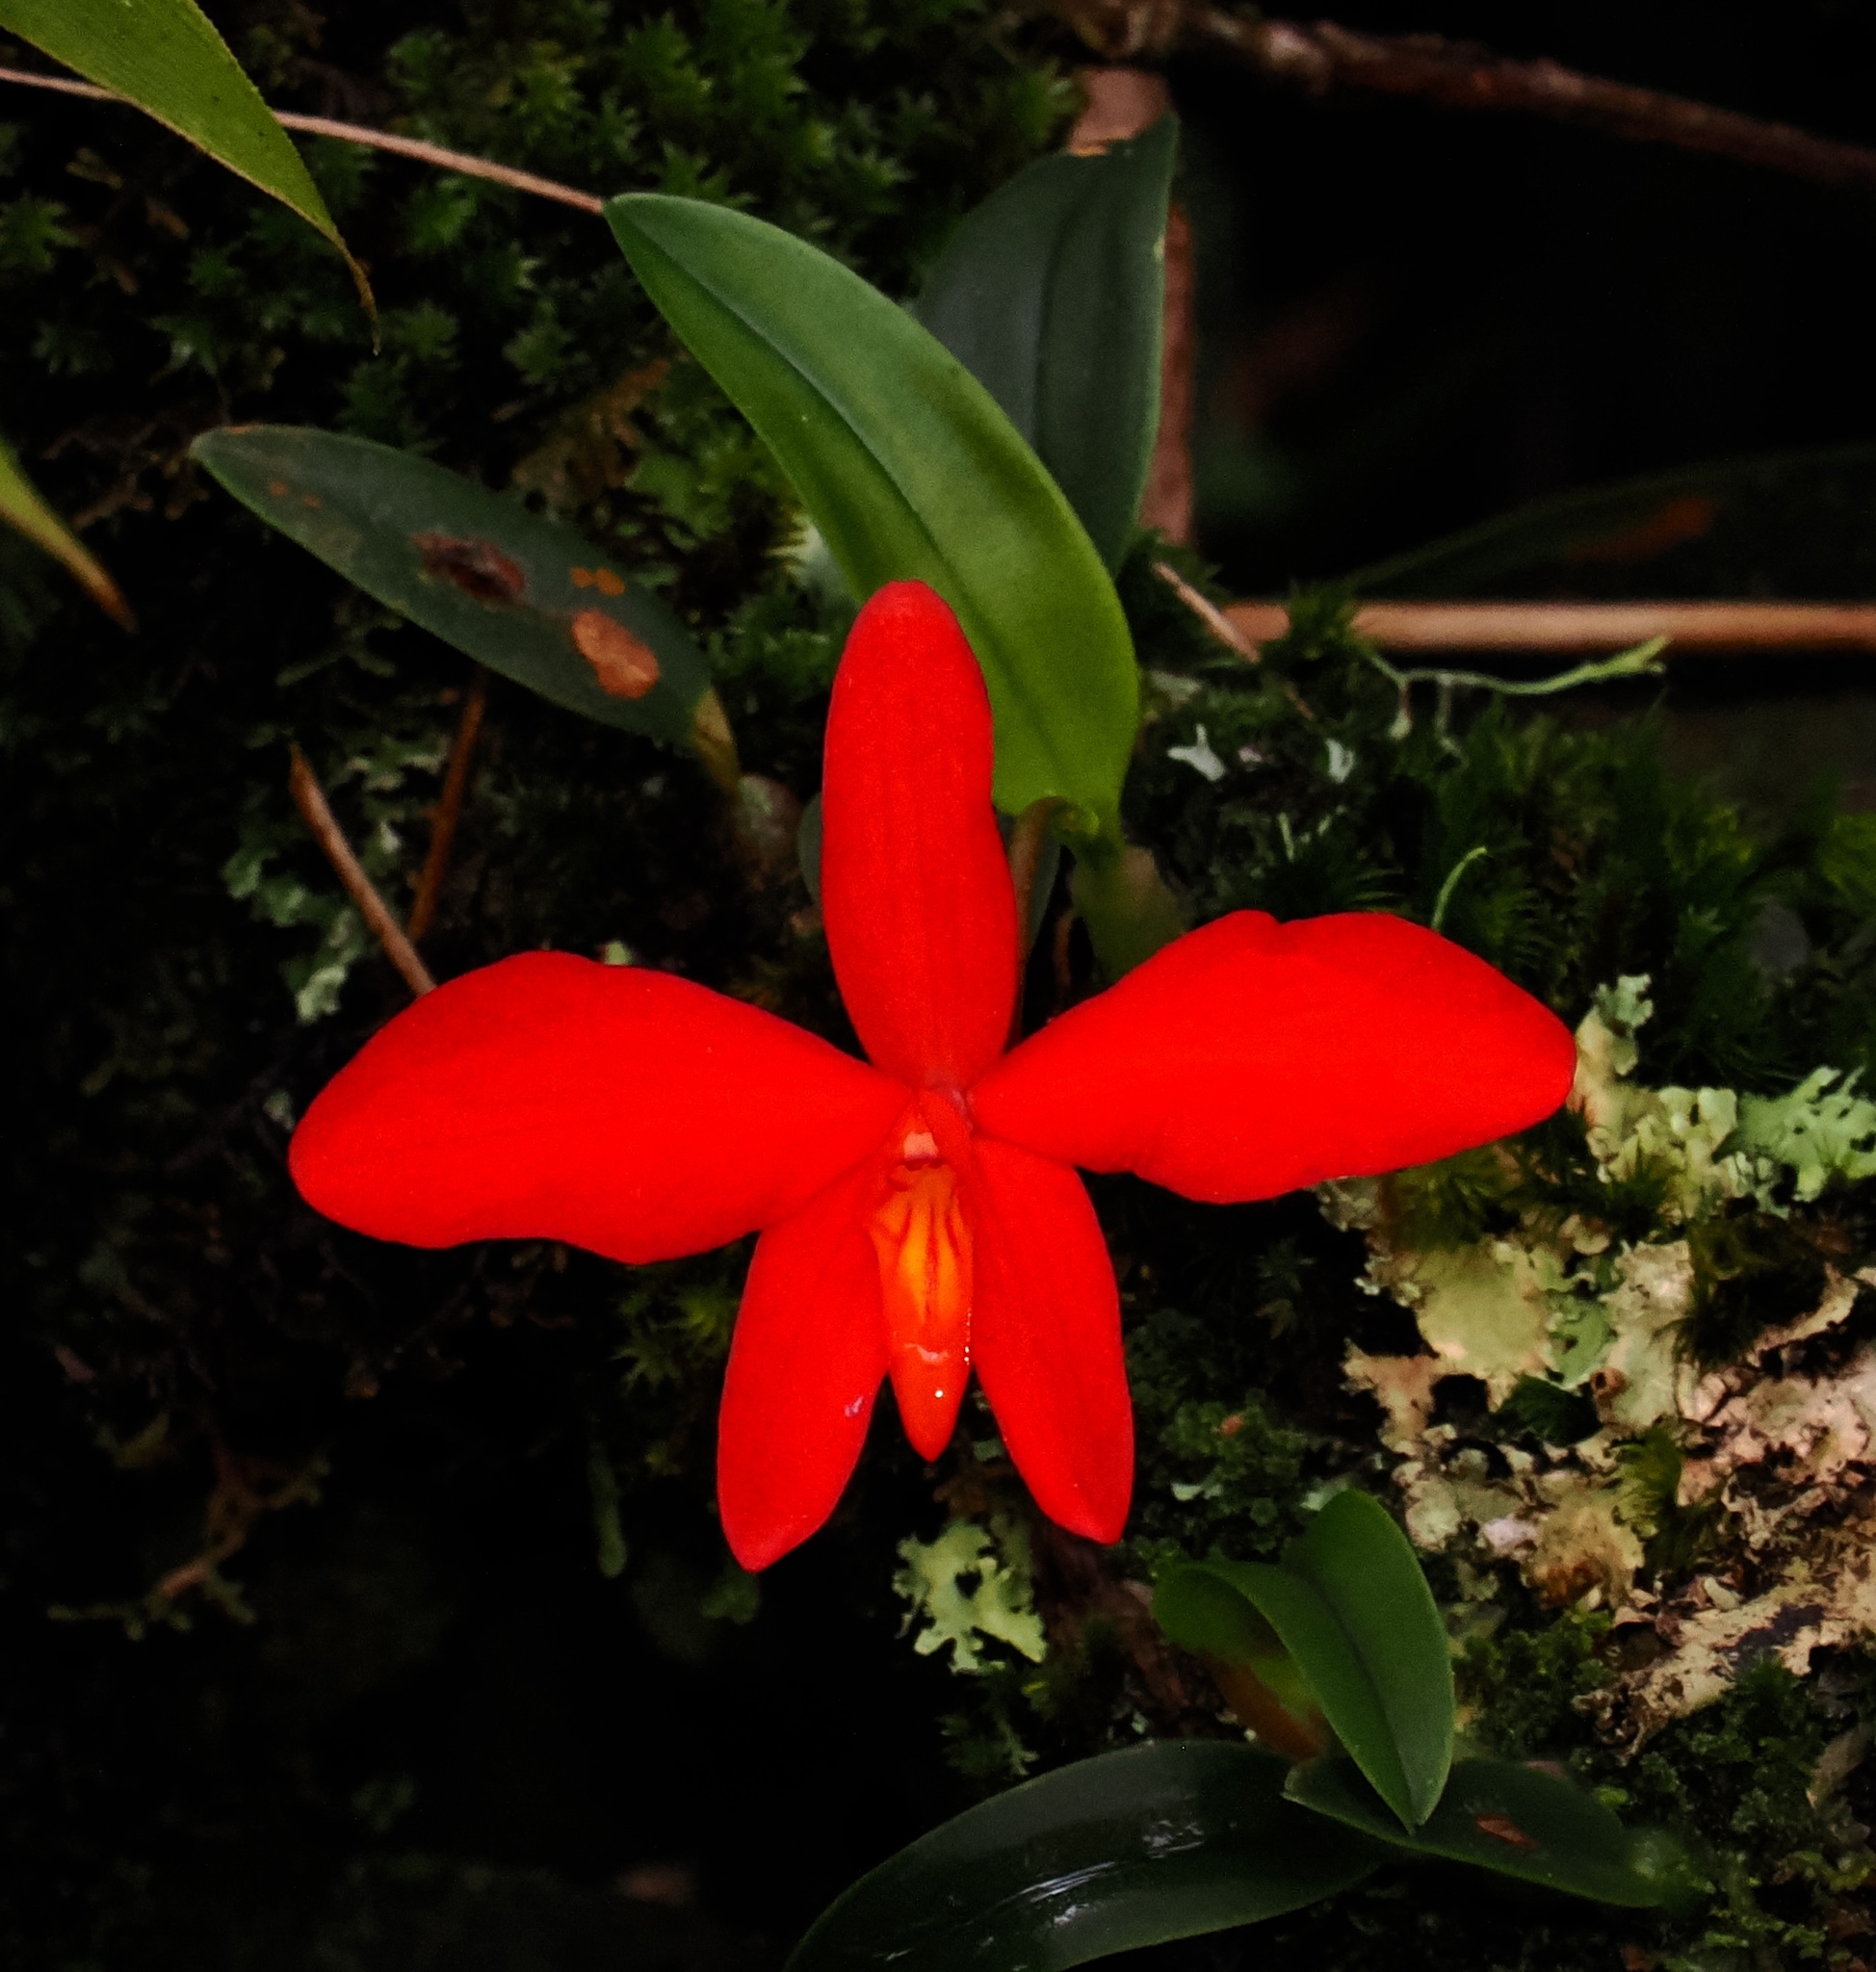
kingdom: Plantae
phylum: Tracheophyta
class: Liliopsida
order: Asparagales
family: Orchidaceae
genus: Cattleya
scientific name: Cattleya coccinea
